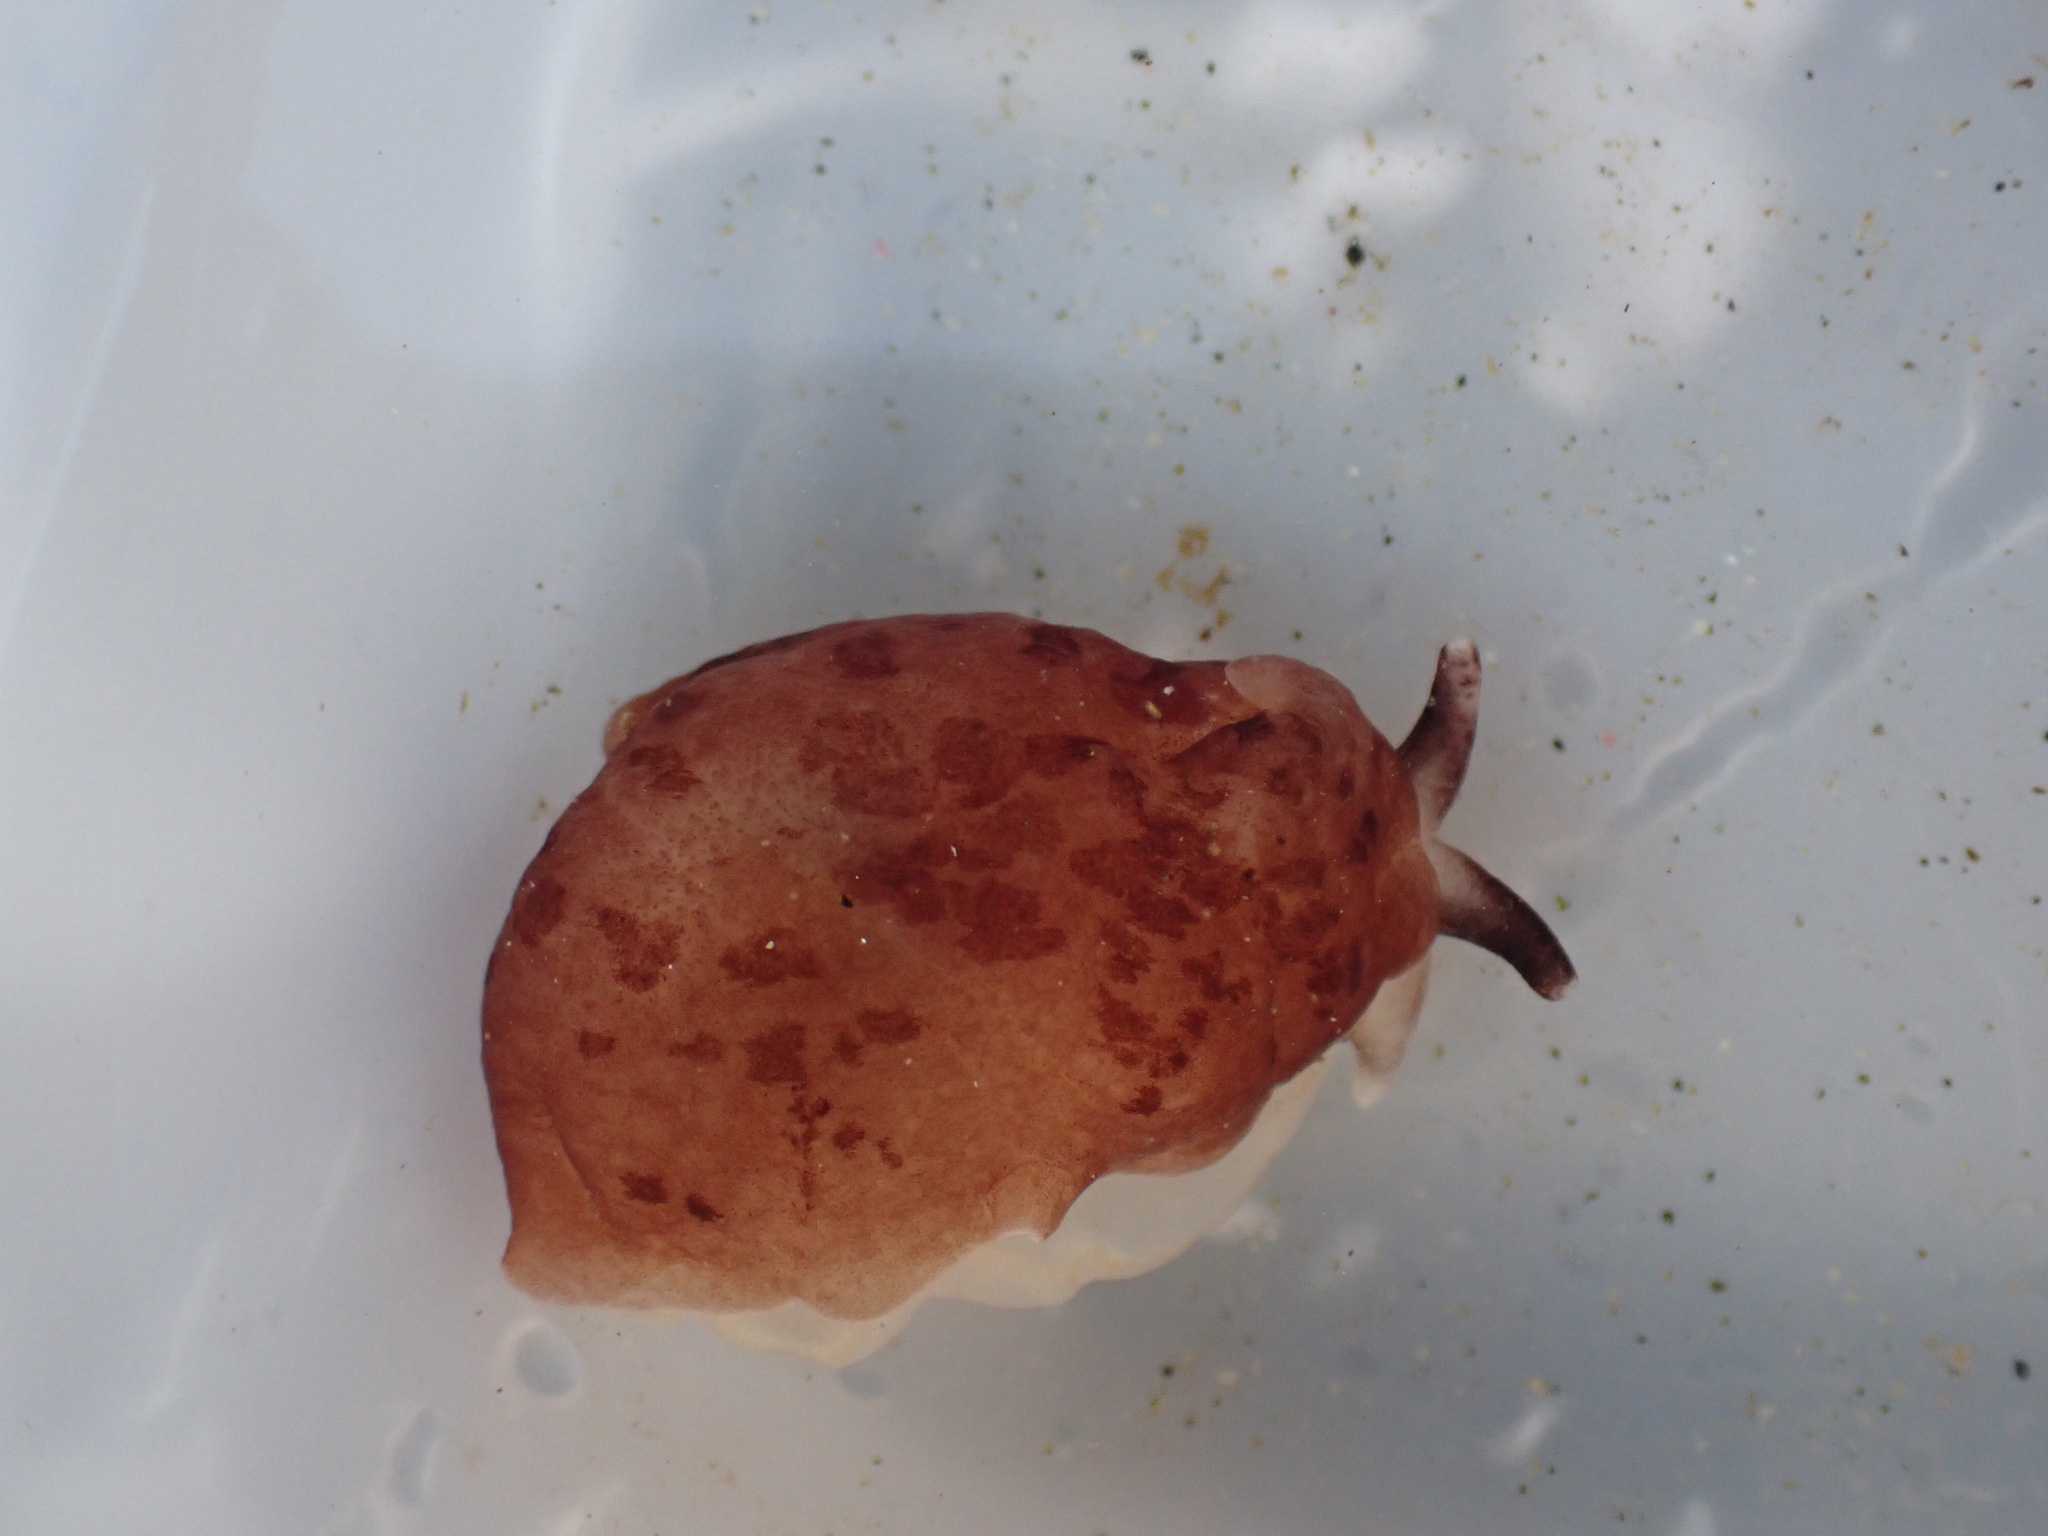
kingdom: Animalia
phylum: Mollusca
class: Gastropoda
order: Pleurobranchida
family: Pleurobranchidae
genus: Berthella
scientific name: Berthella ornata
